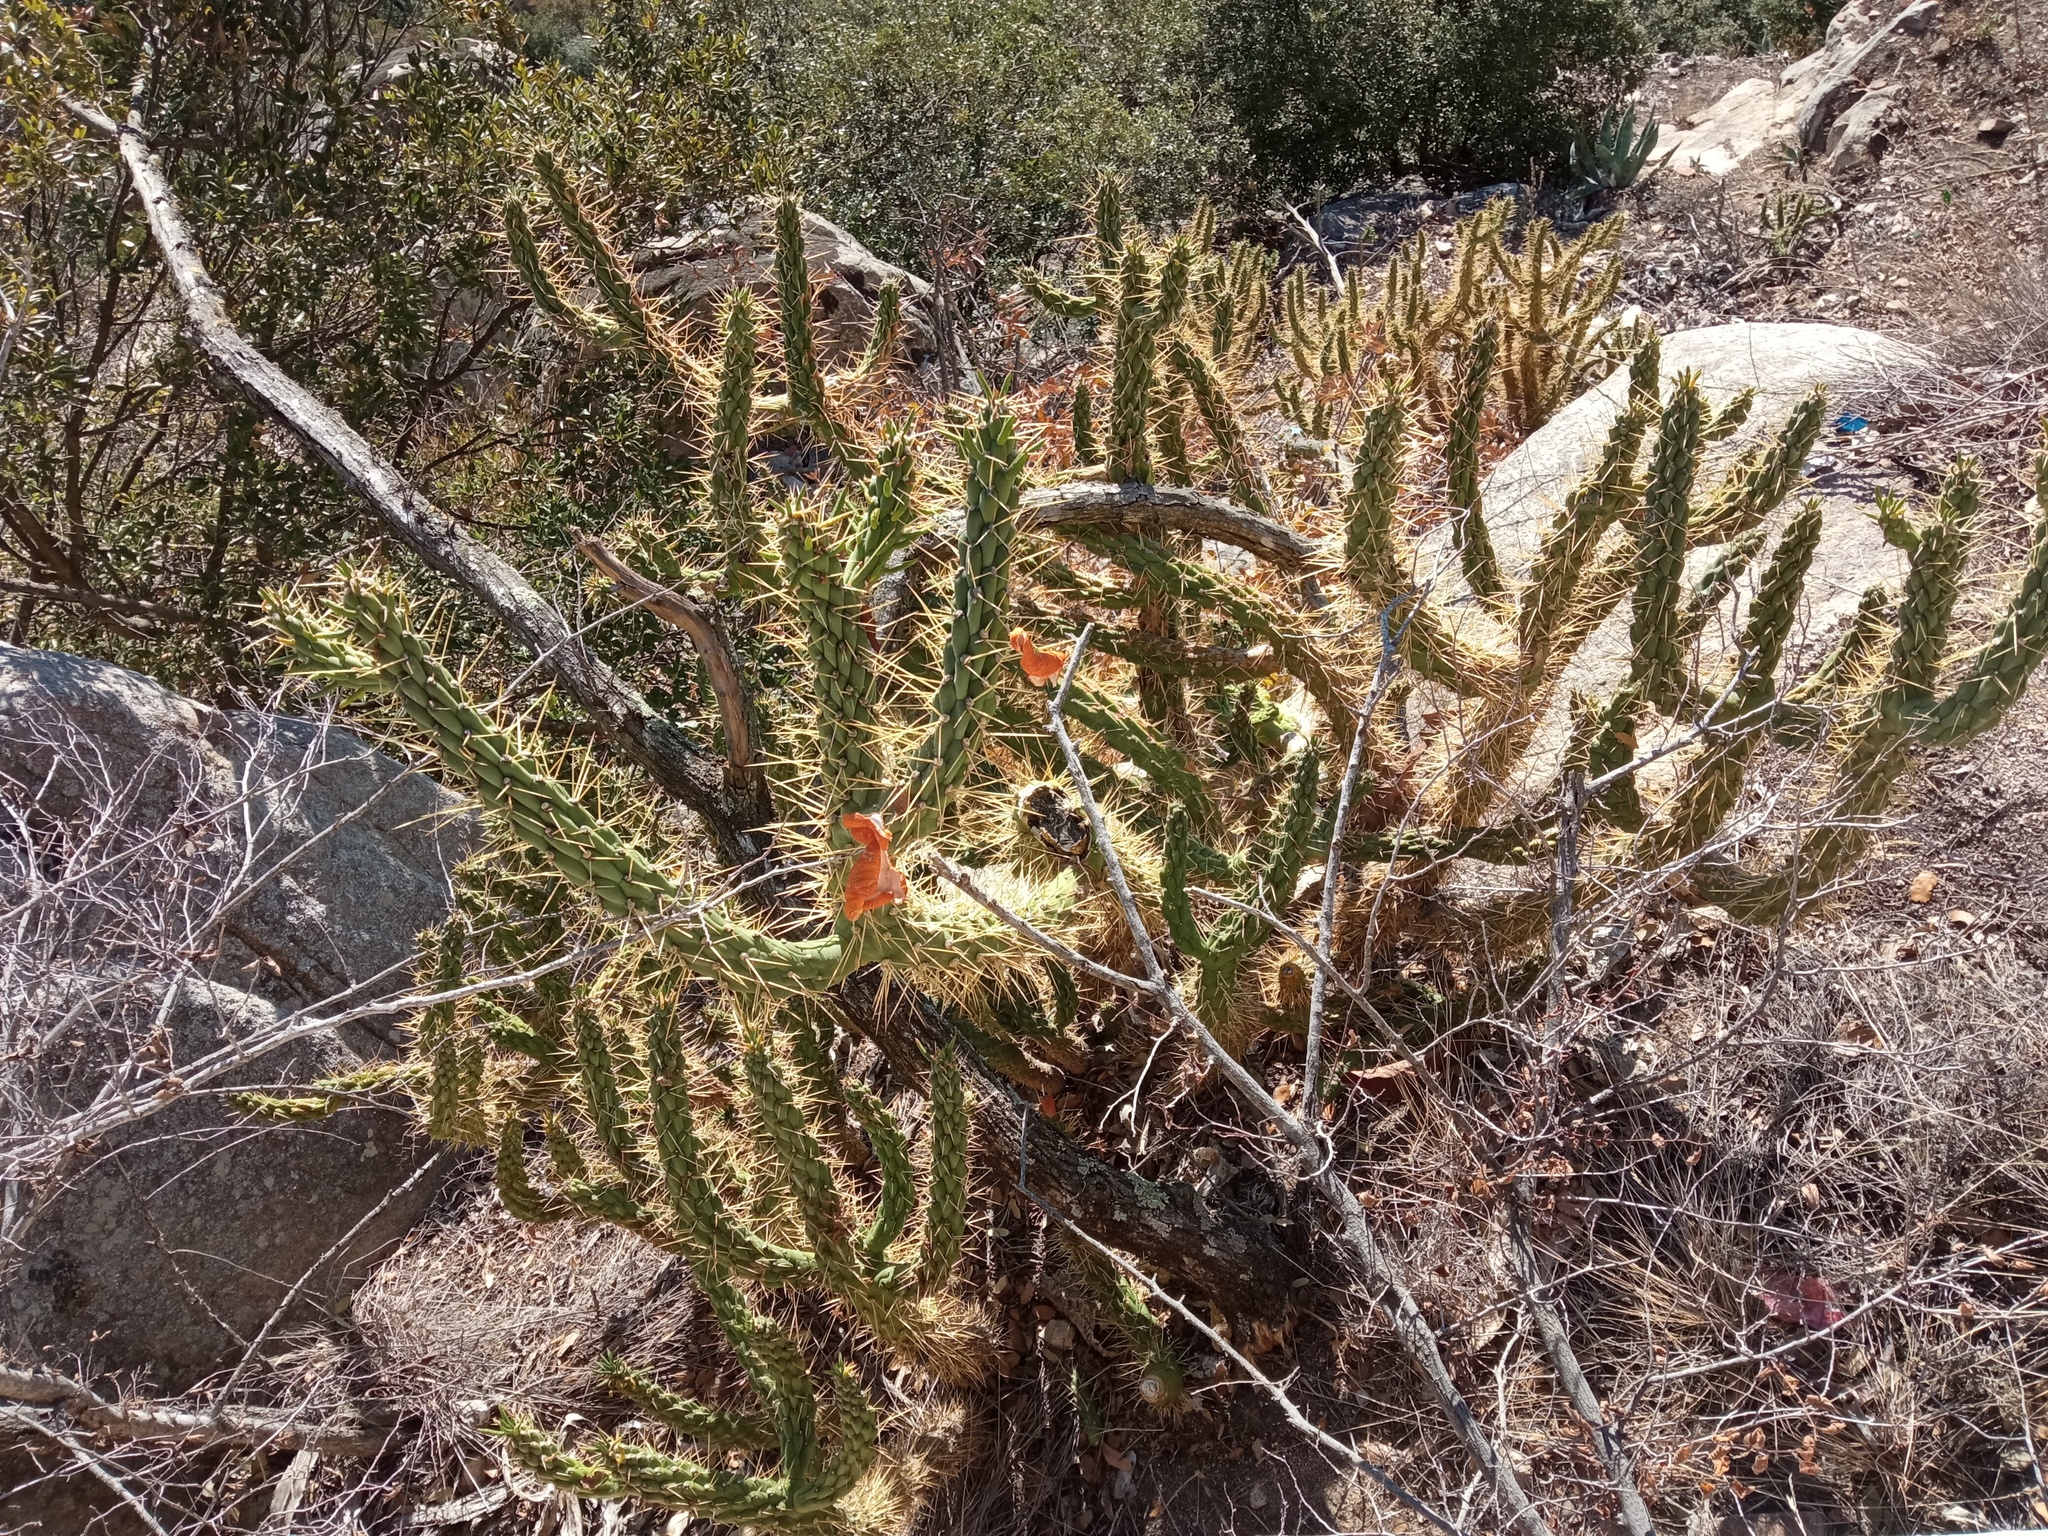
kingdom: Plantae
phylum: Tracheophyta
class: Magnoliopsida
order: Caryophyllales
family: Cactaceae
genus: Austrocylindropuntia
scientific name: Austrocylindropuntia subulata
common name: Eve's needle cactus
